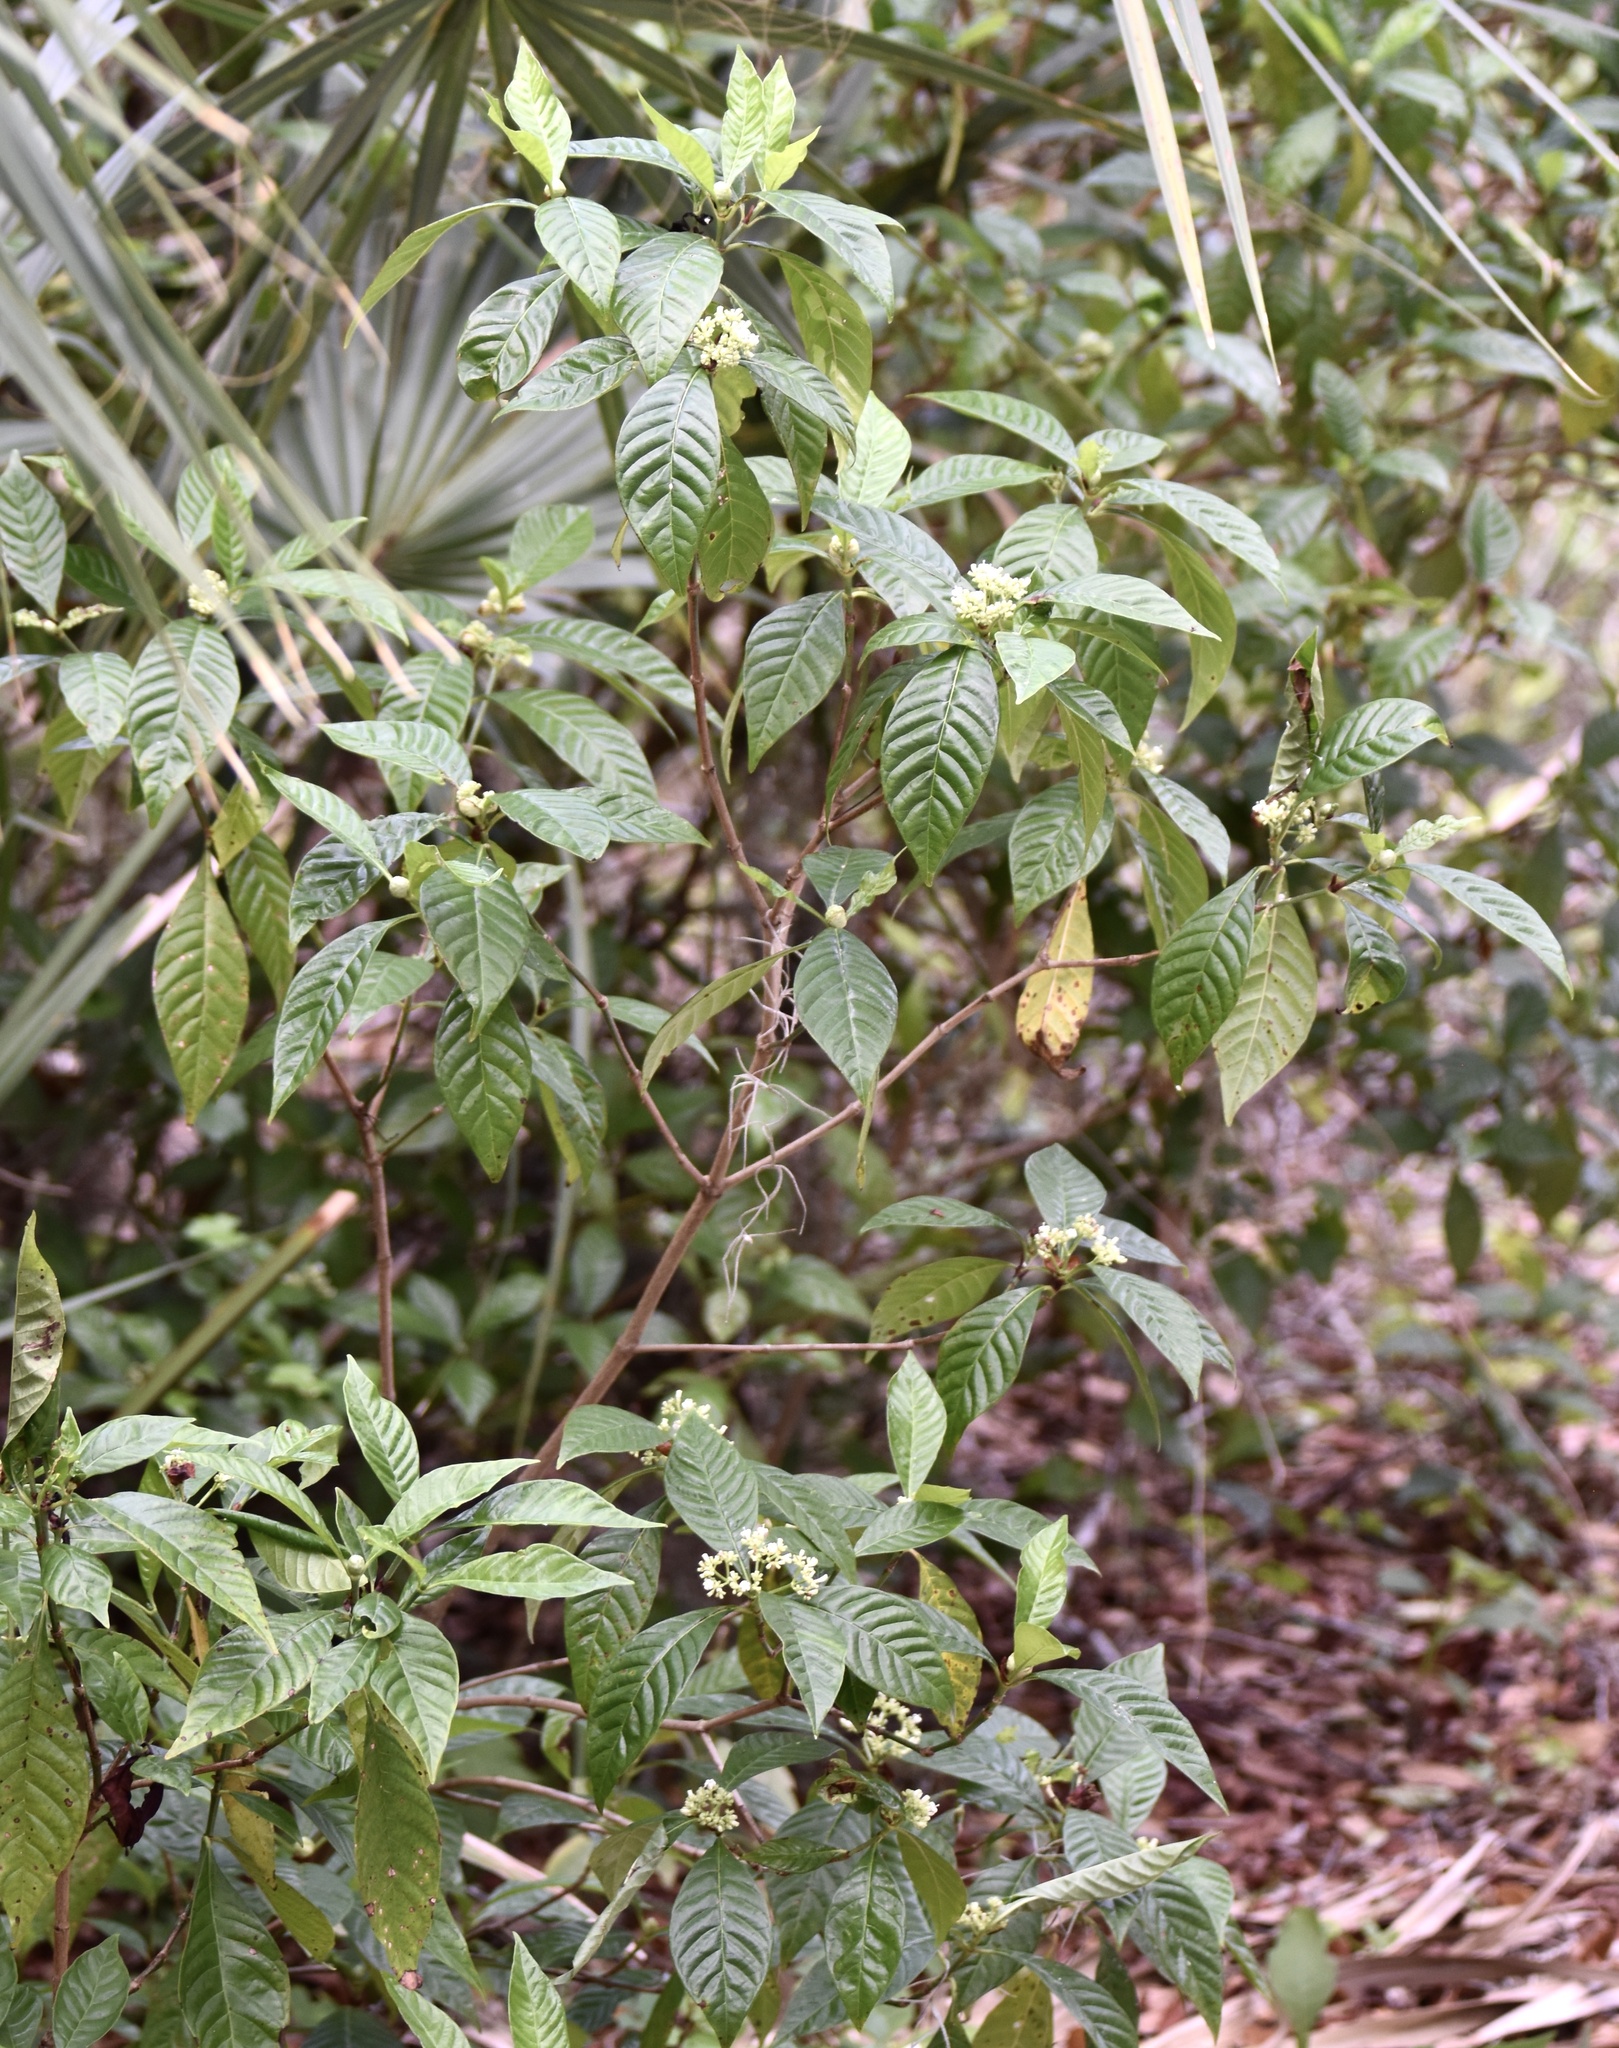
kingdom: Plantae
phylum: Tracheophyta
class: Magnoliopsida
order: Gentianales
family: Rubiaceae
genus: Psychotria
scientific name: Psychotria nervosa
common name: Bastard cankerberry
